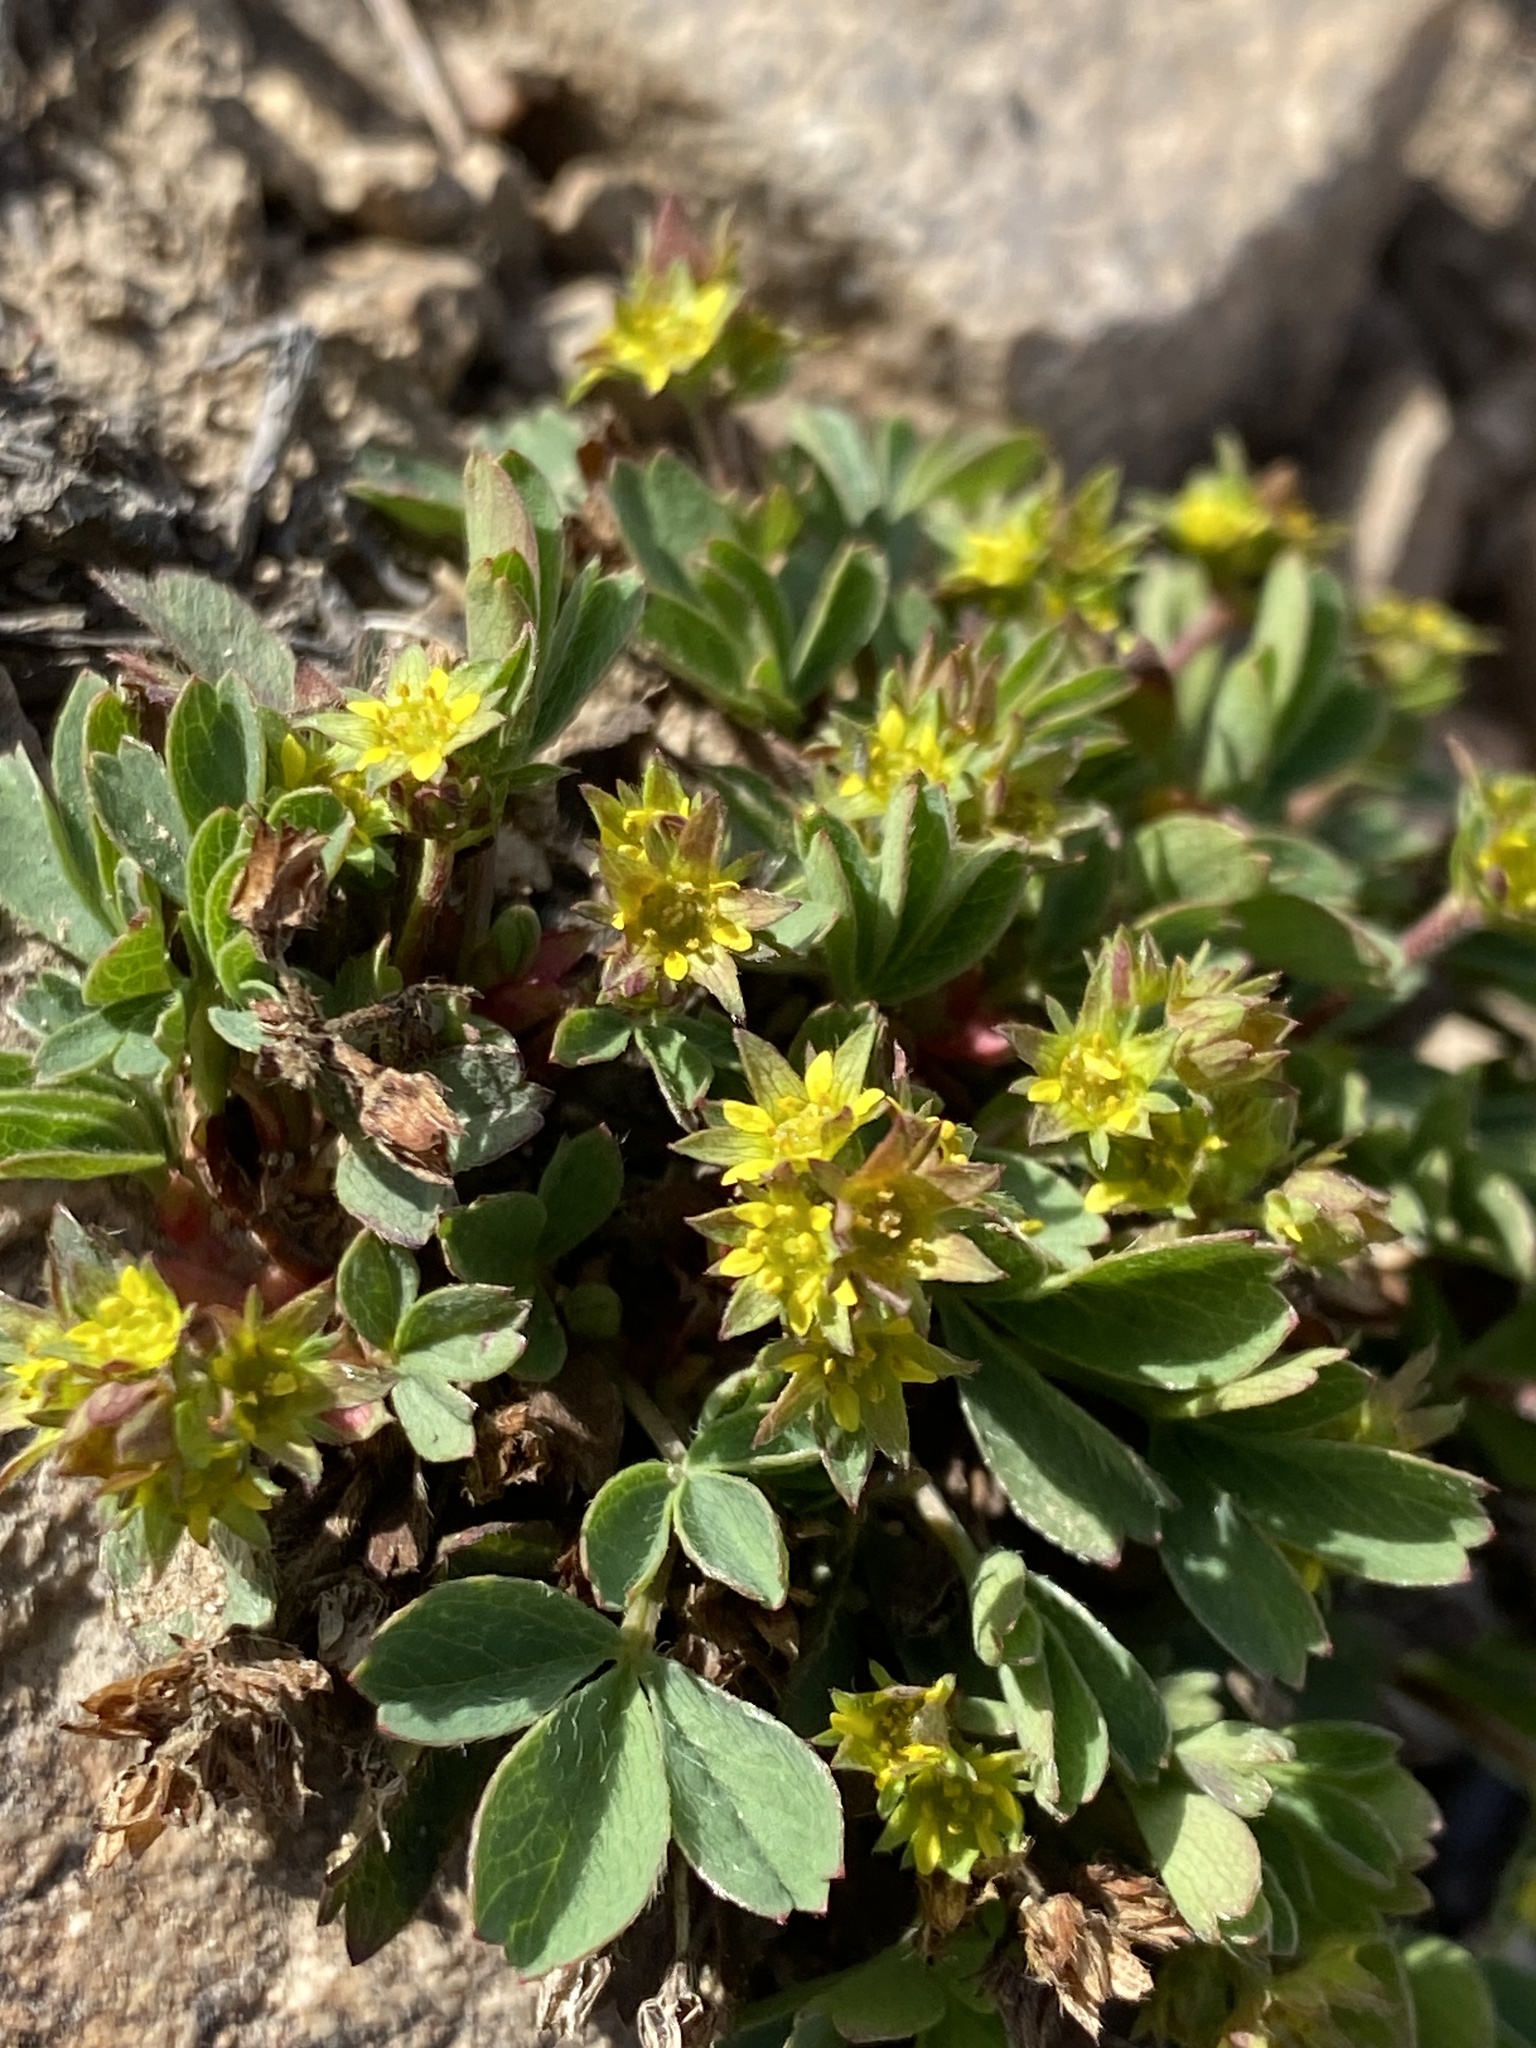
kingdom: Plantae
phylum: Tracheophyta
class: Magnoliopsida
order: Rosales
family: Rosaceae
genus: Sibbaldia
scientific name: Sibbaldia procumbens
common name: Creeping sibbaldia
